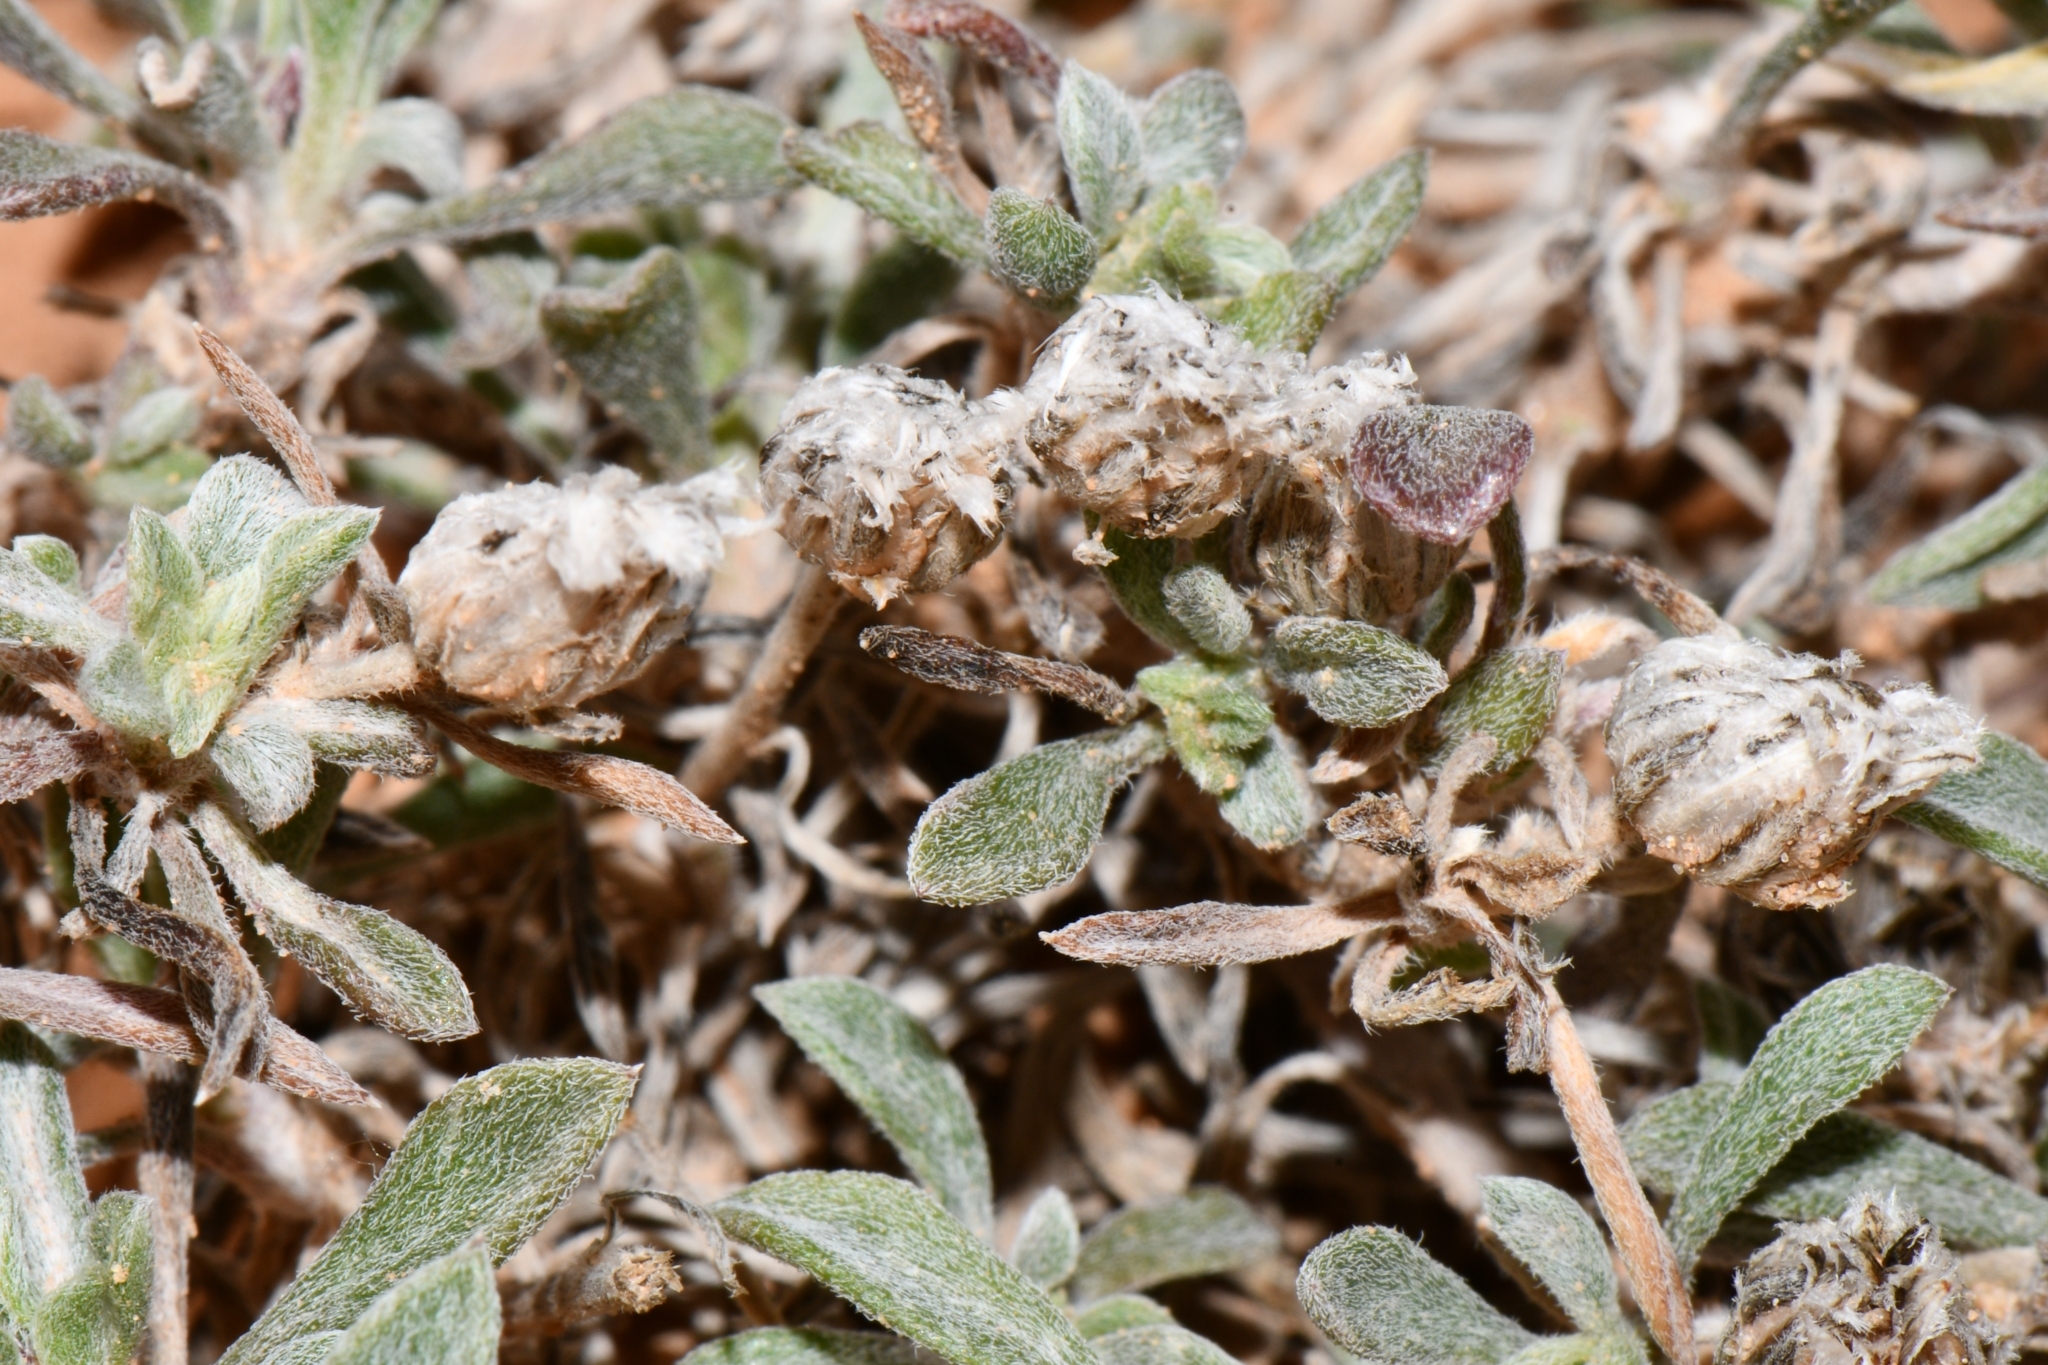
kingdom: Plantae
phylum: Tracheophyta
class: Magnoliopsida
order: Asterales
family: Asteraceae
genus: Townsendia
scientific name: Townsendia incana
